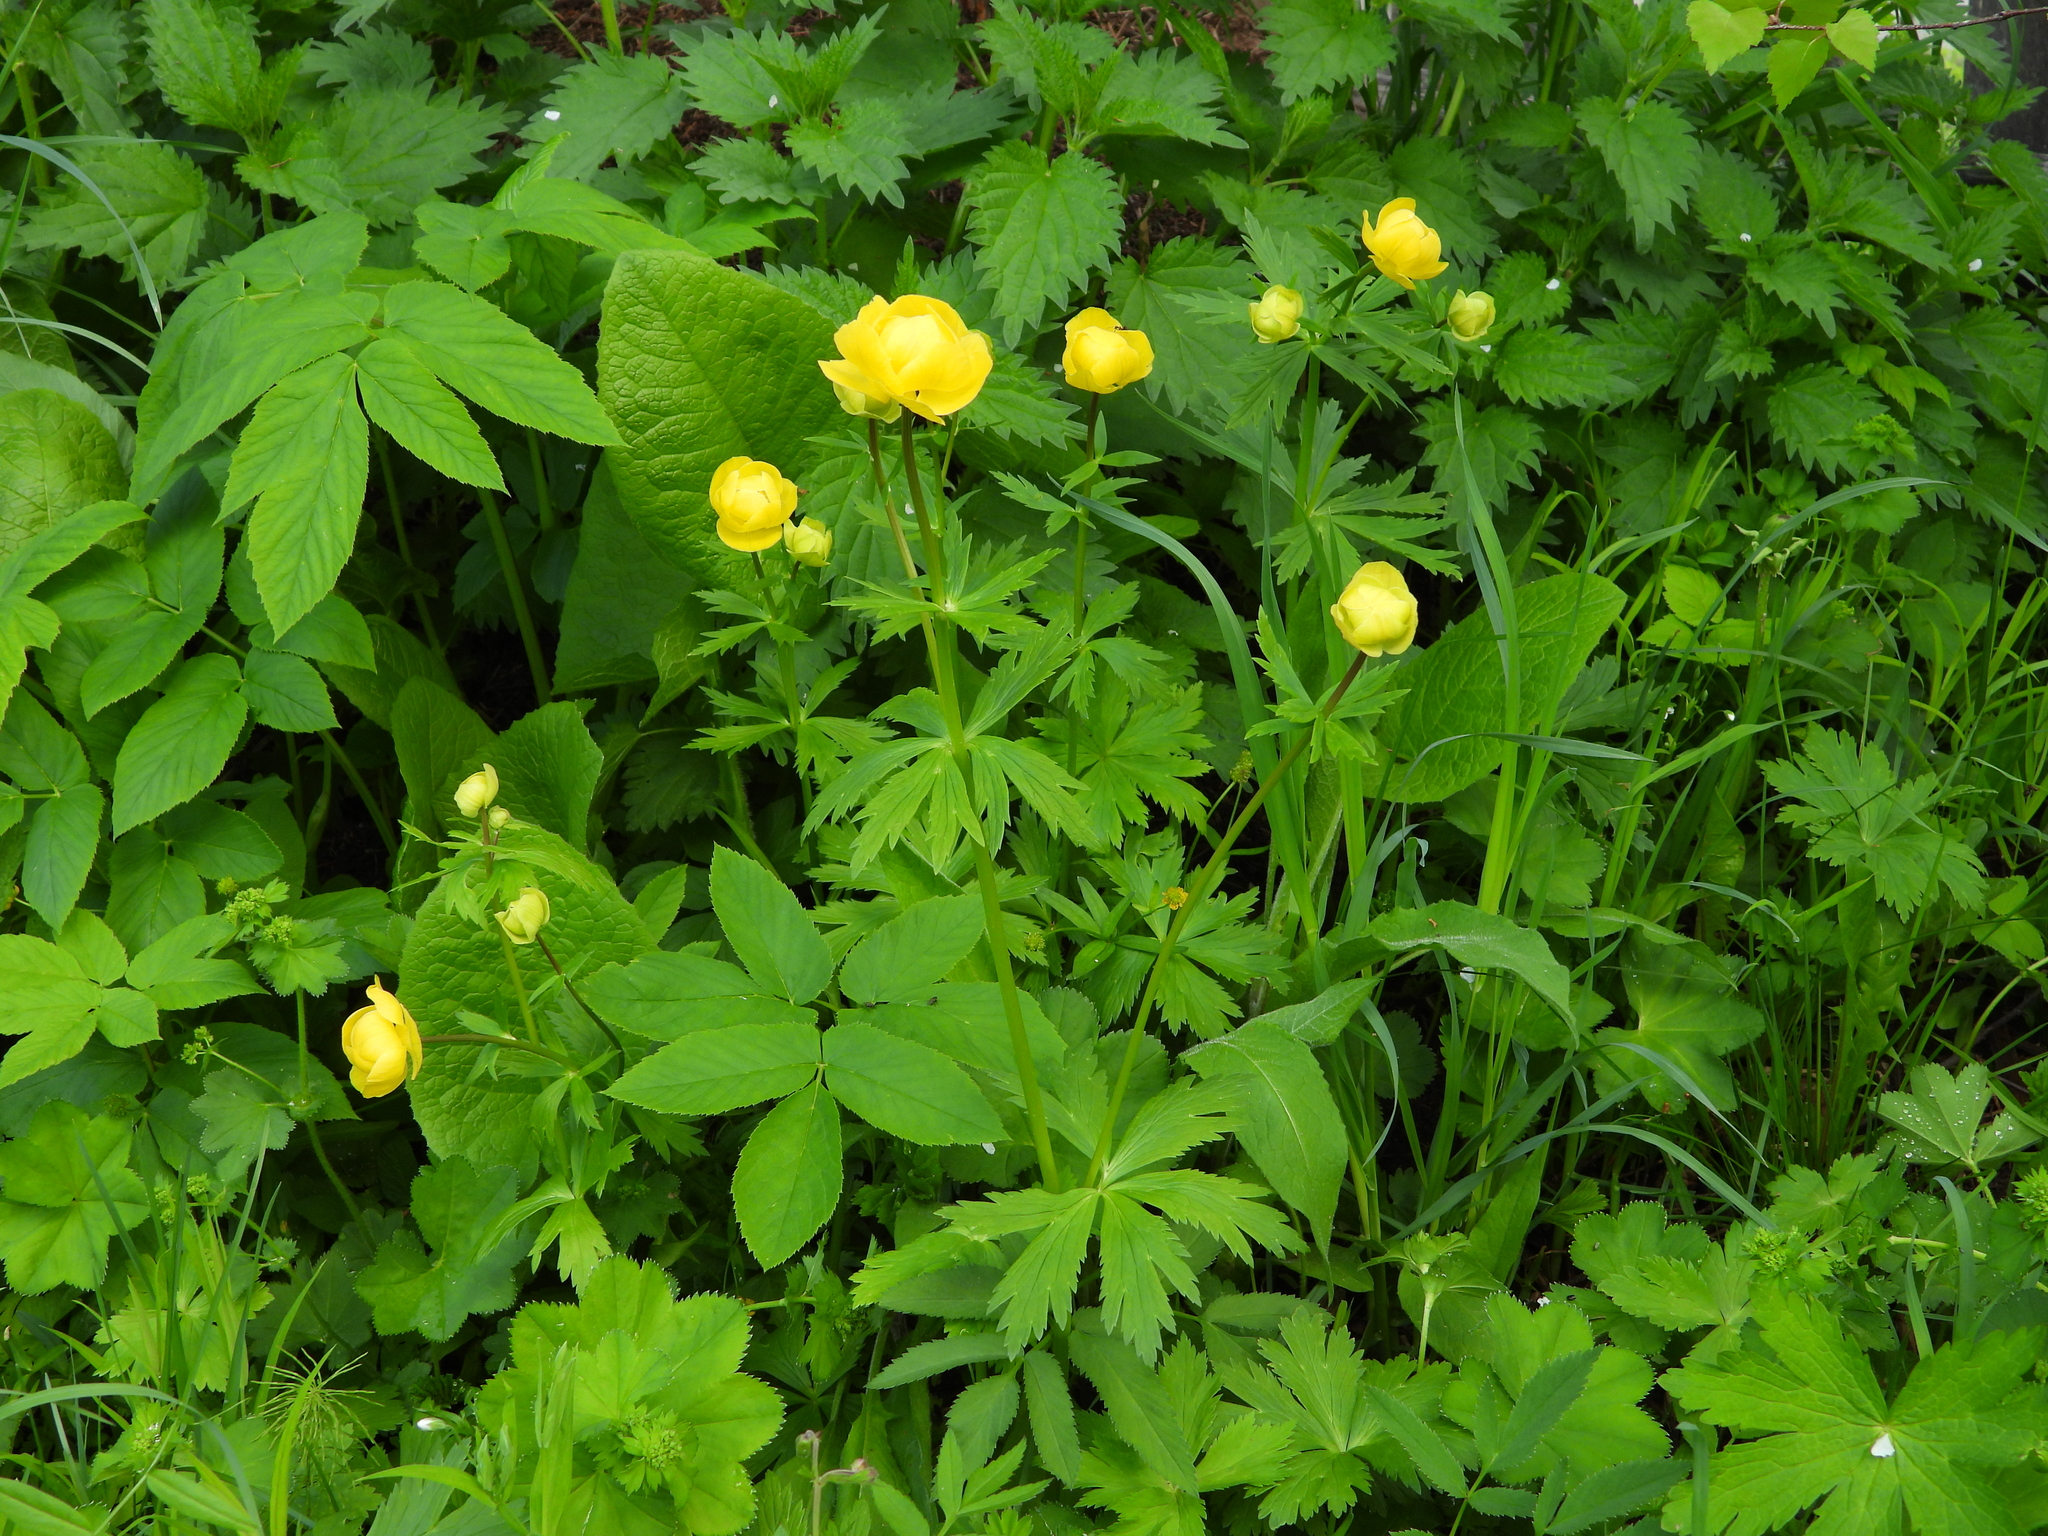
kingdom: Plantae
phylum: Tracheophyta
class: Magnoliopsida
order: Ranunculales
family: Ranunculaceae
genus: Trollius
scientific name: Trollius europaeus
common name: European globeflower
